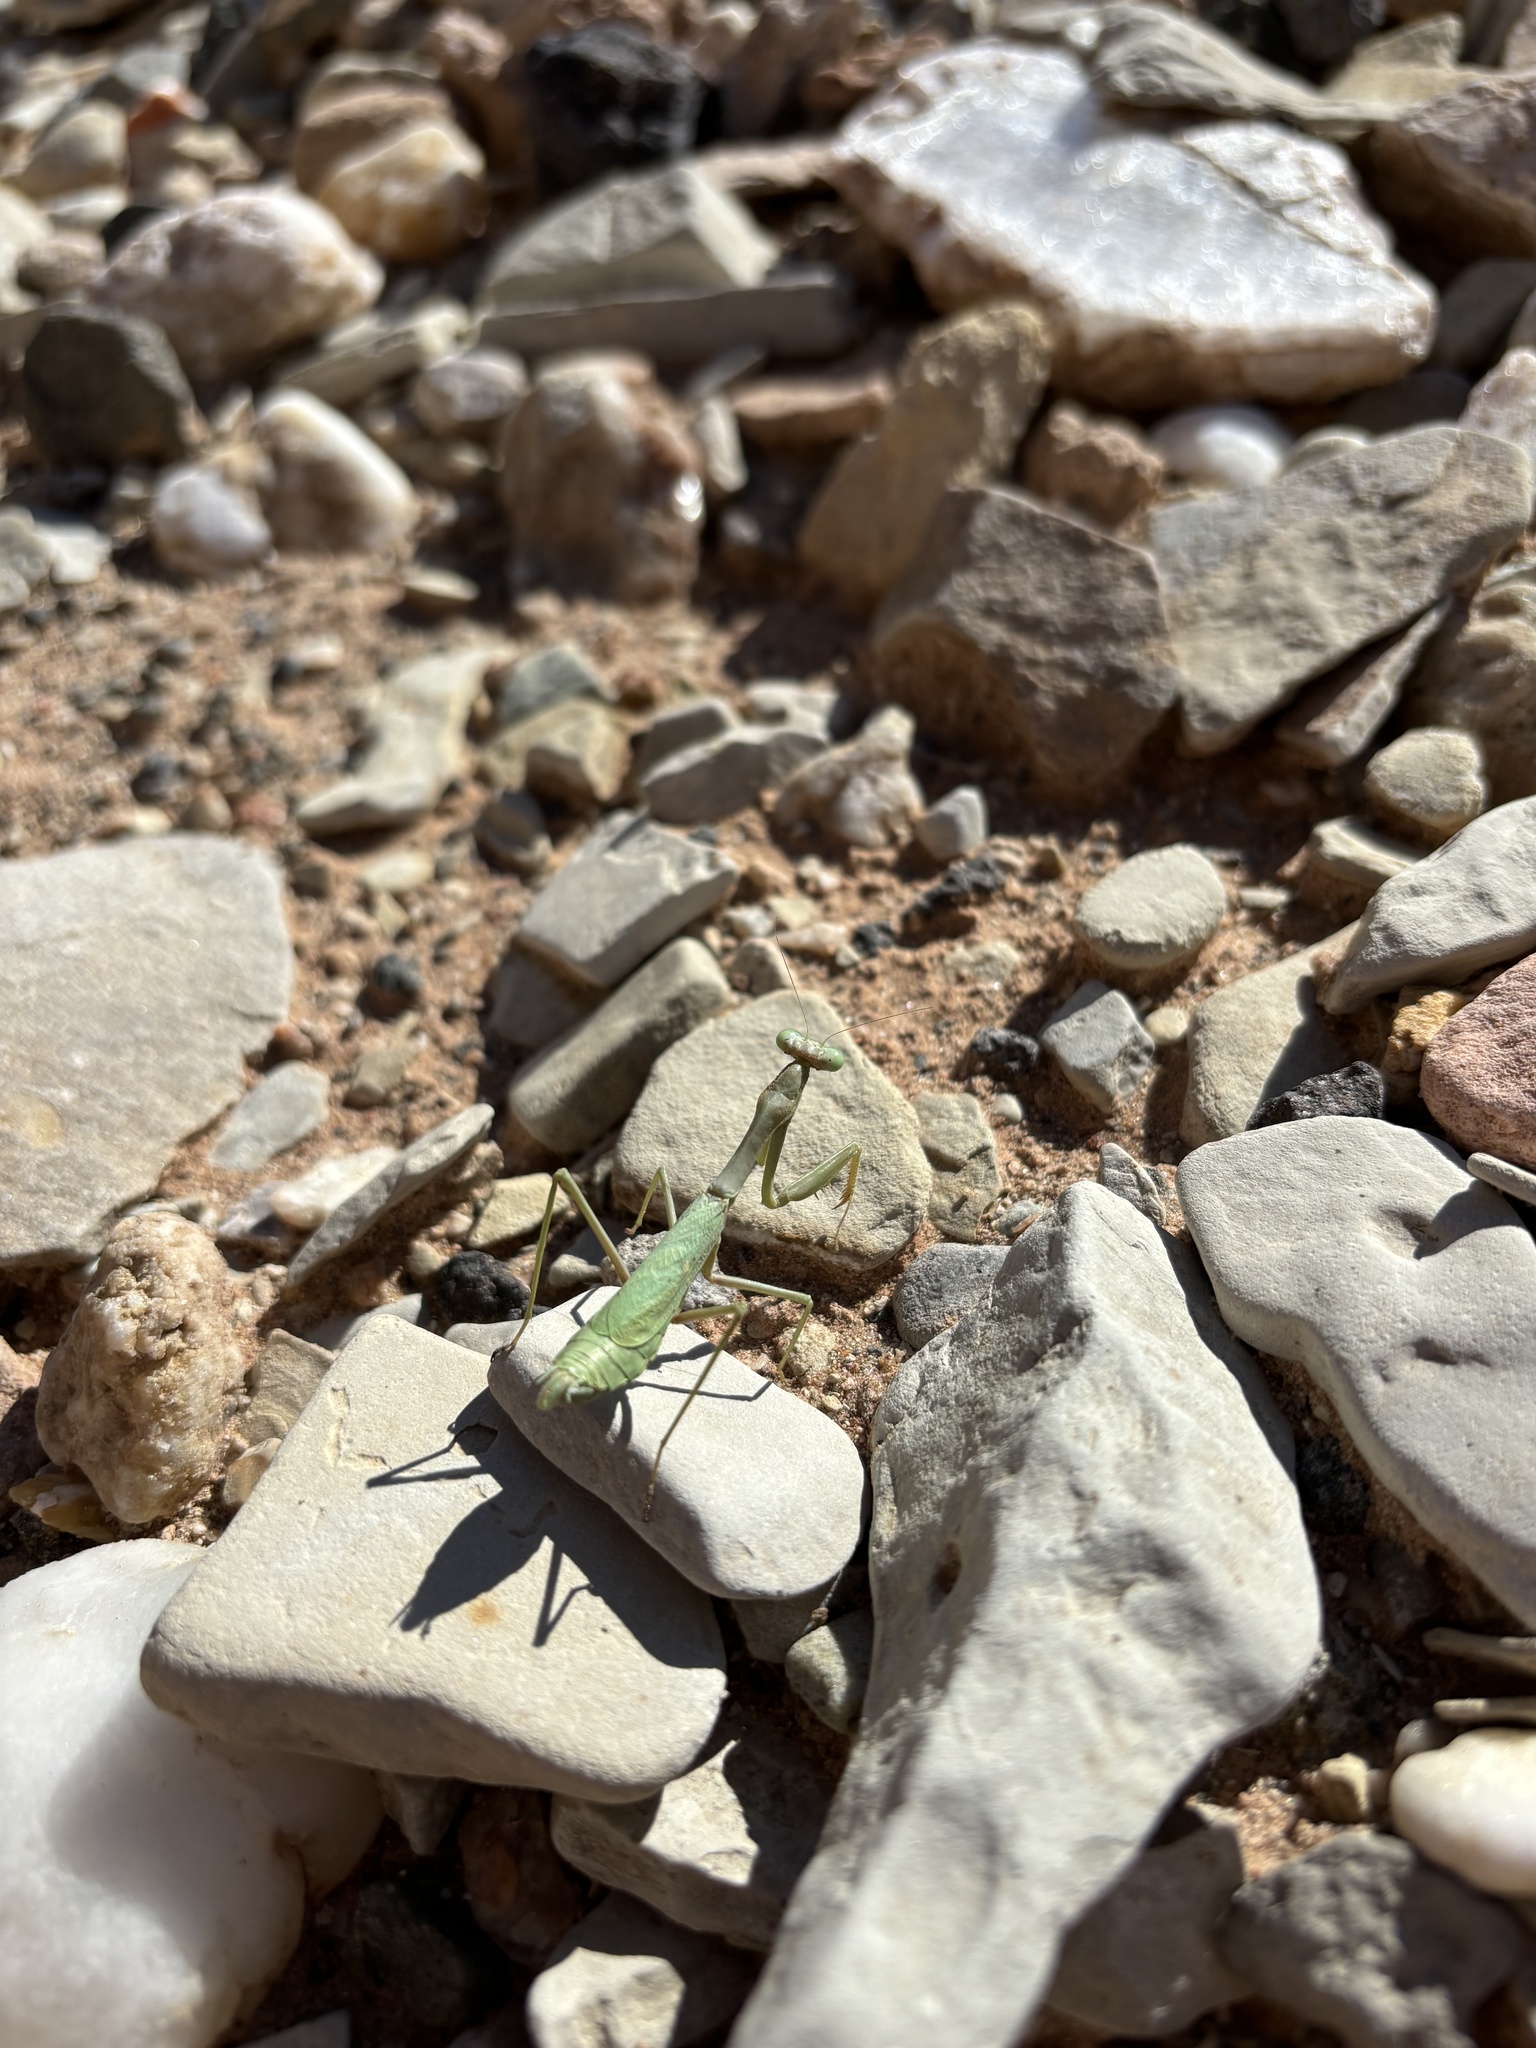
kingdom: Animalia
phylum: Arthropoda
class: Insecta
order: Mantodea
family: Mantidae
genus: Stagmomantis
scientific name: Stagmomantis californica
